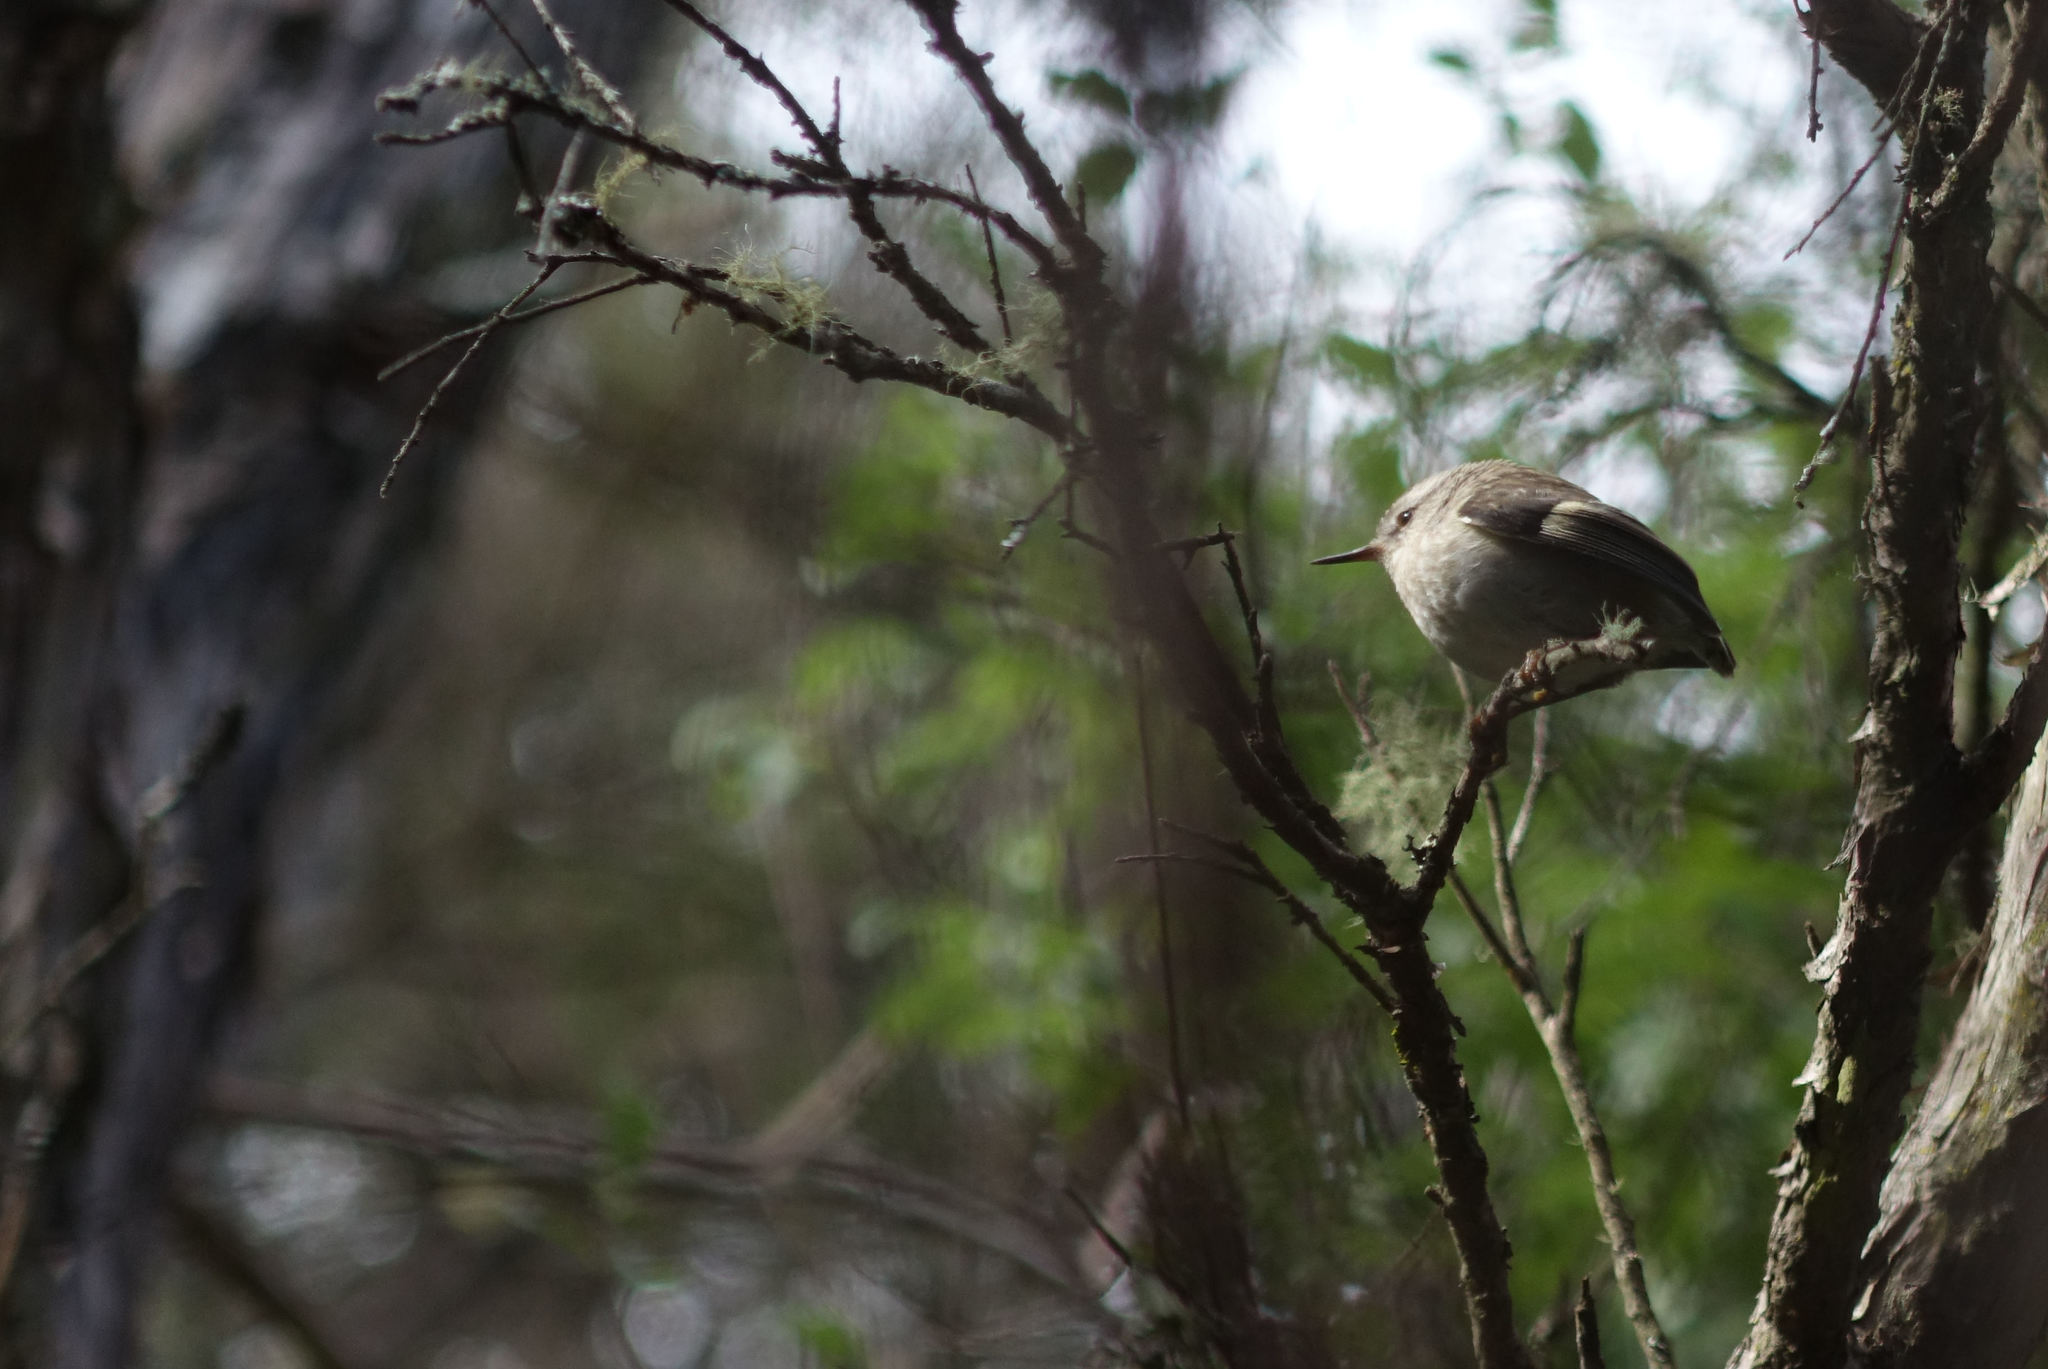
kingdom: Animalia
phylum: Chordata
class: Aves
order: Passeriformes
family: Acanthisittidae
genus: Acanthisitta
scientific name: Acanthisitta chloris
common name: Rifleman
